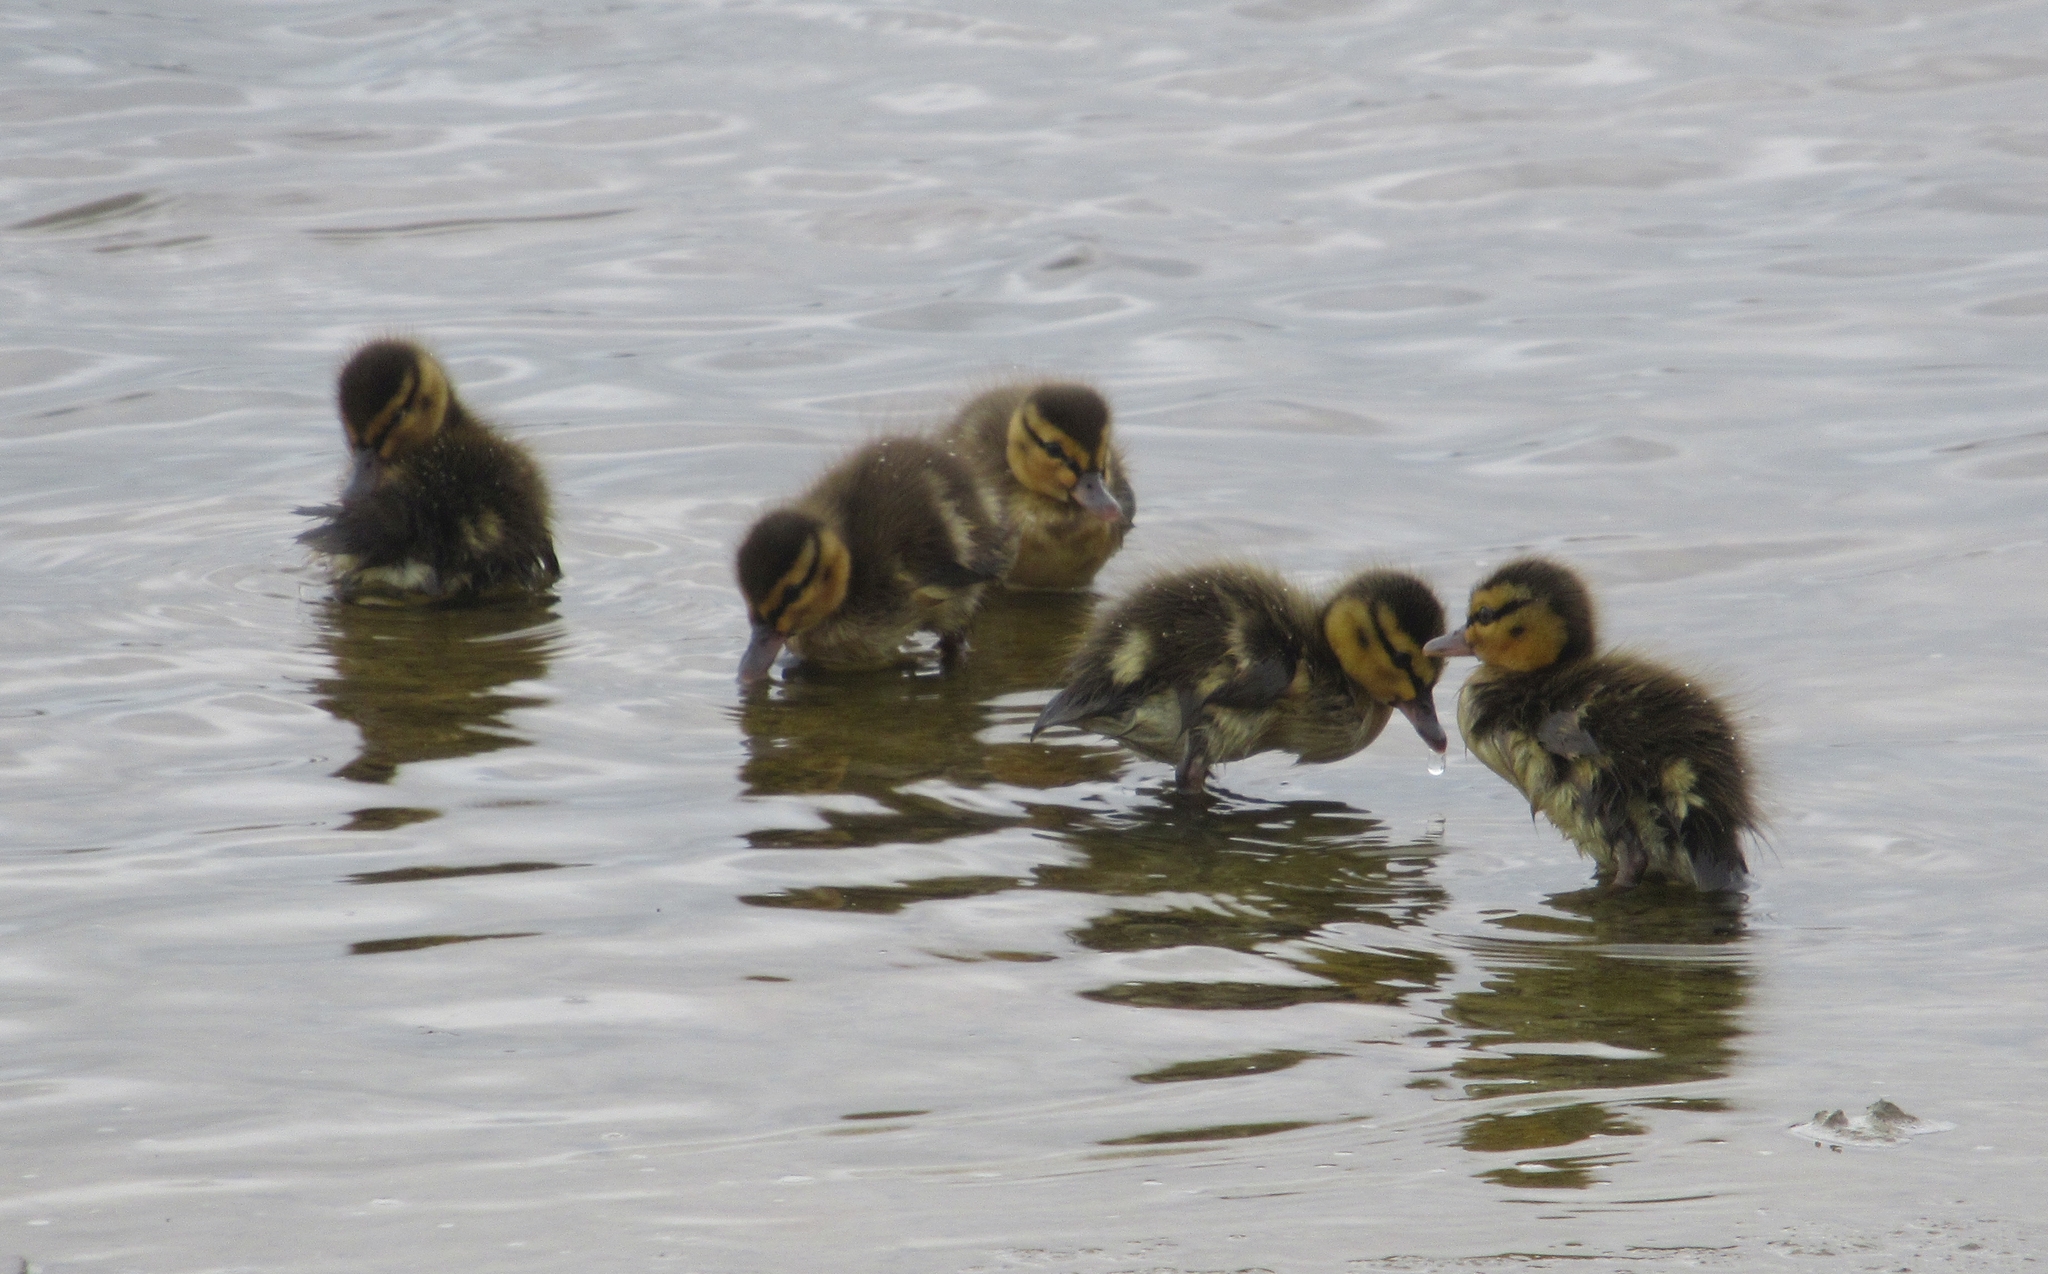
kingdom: Animalia
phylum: Chordata
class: Aves
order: Anseriformes
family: Anatidae
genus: Anas
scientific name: Anas platyrhynchos
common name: Mallard
